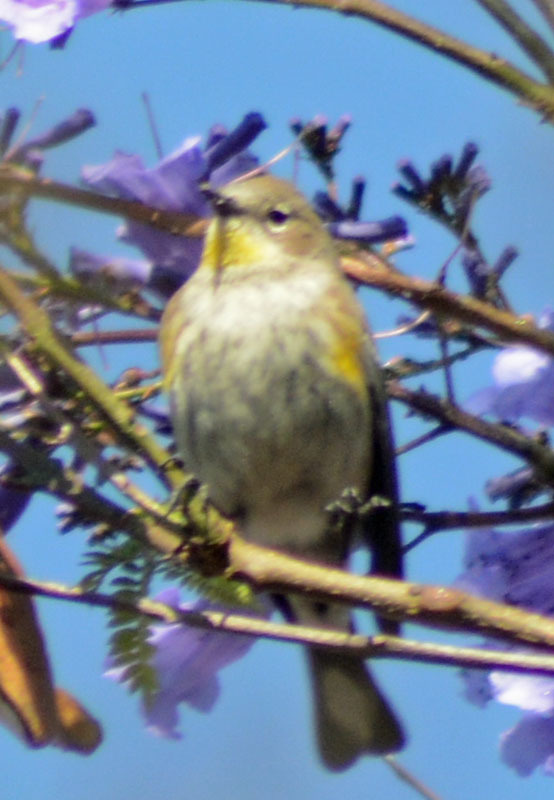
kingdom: Animalia
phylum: Chordata
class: Aves
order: Passeriformes
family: Parulidae
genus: Setophaga
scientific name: Setophaga auduboni
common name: Audubon's warbler
